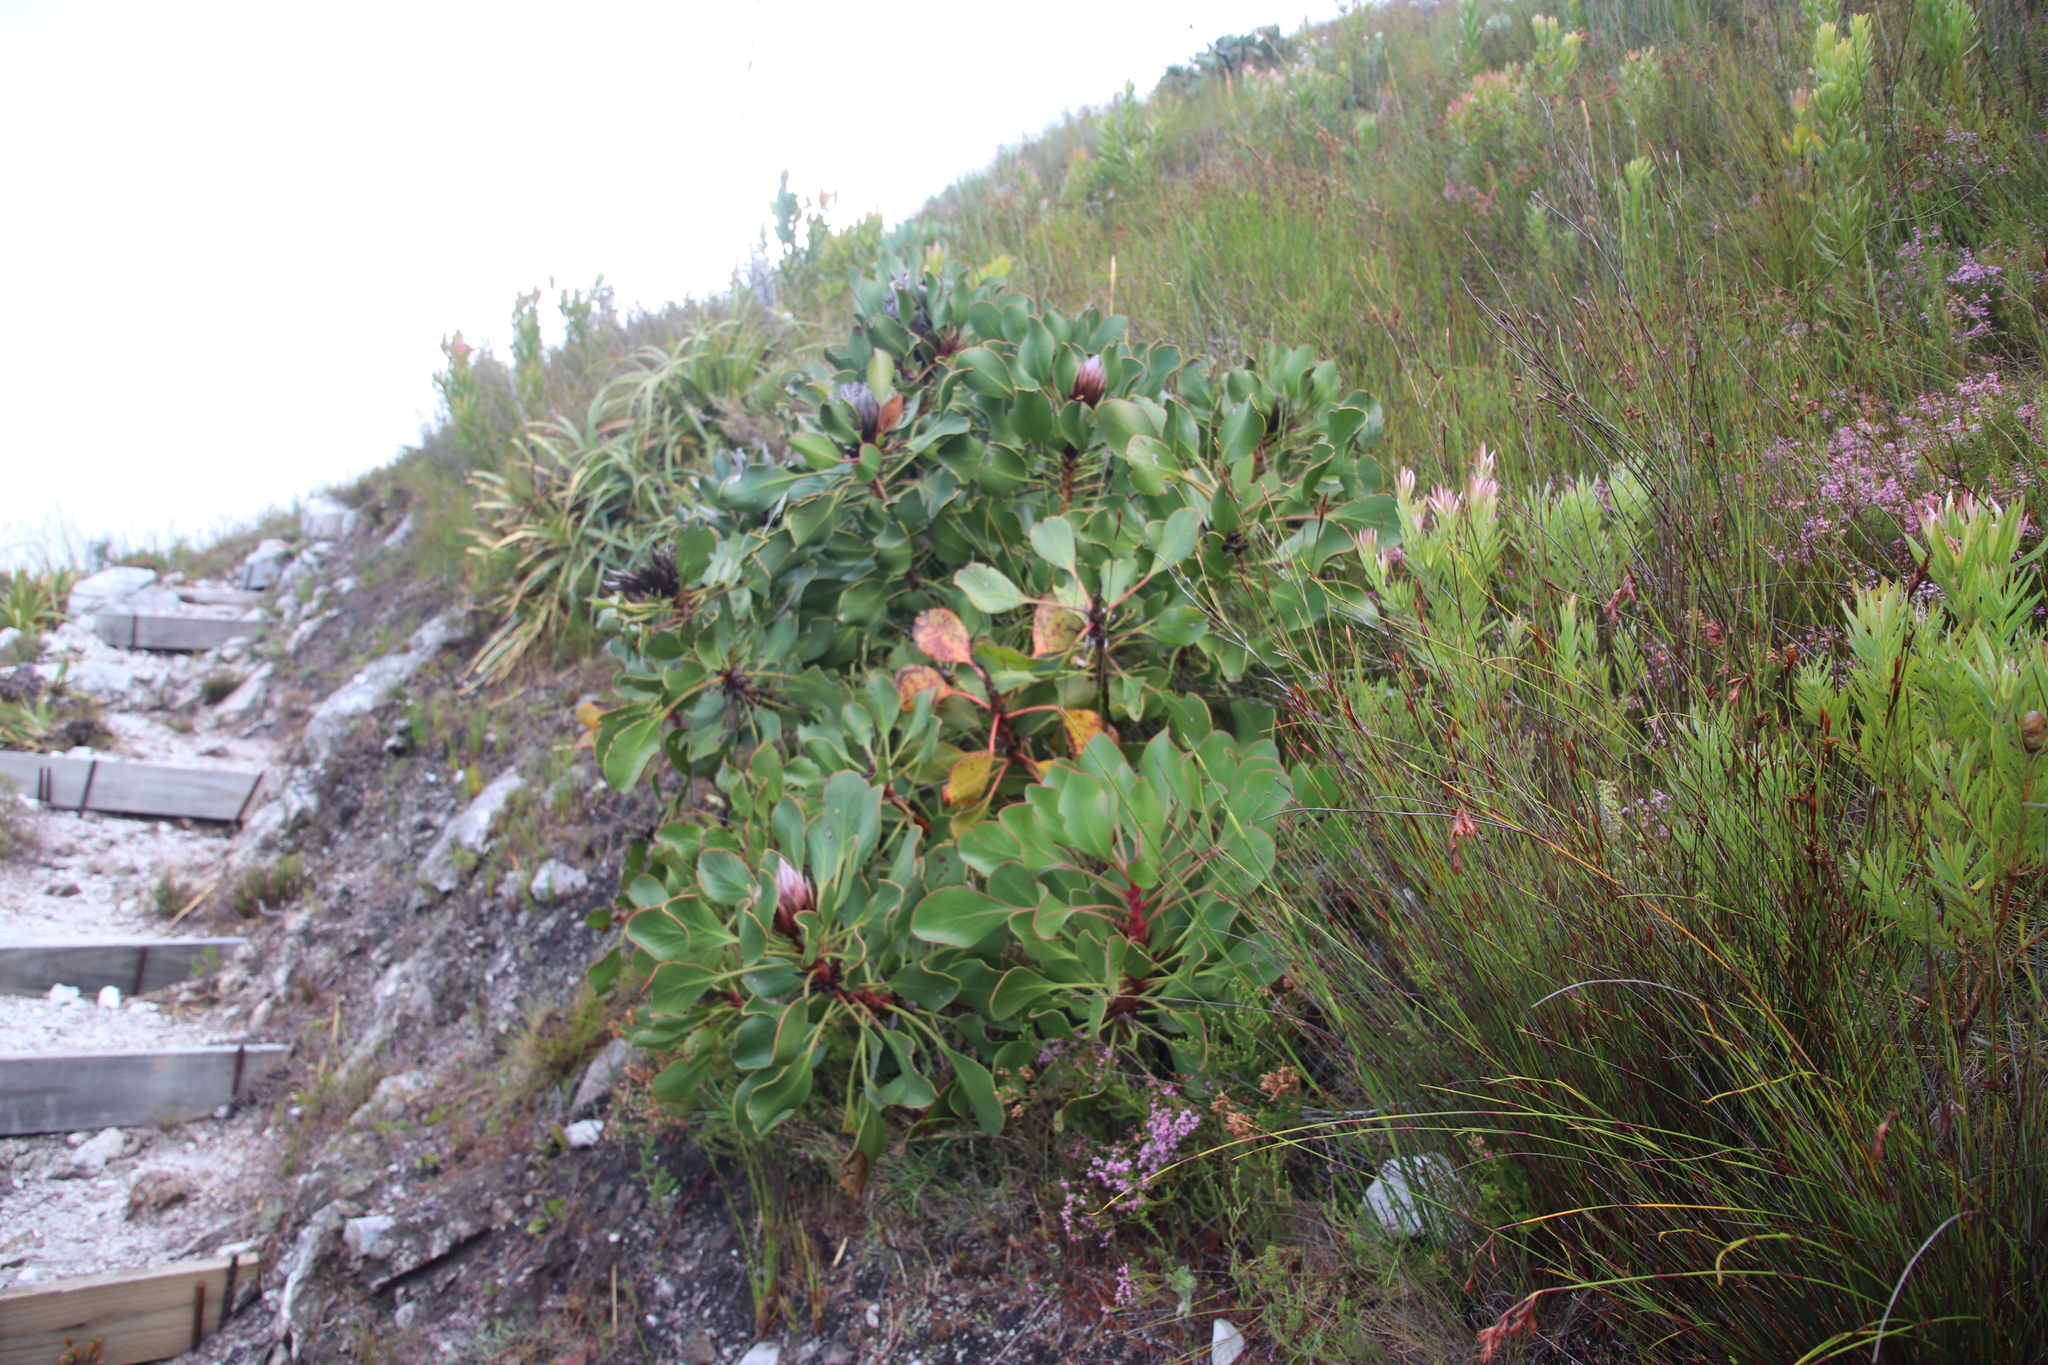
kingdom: Plantae
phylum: Tracheophyta
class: Magnoliopsida
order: Proteales
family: Proteaceae
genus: Protea
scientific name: Protea cynaroides
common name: King protea
